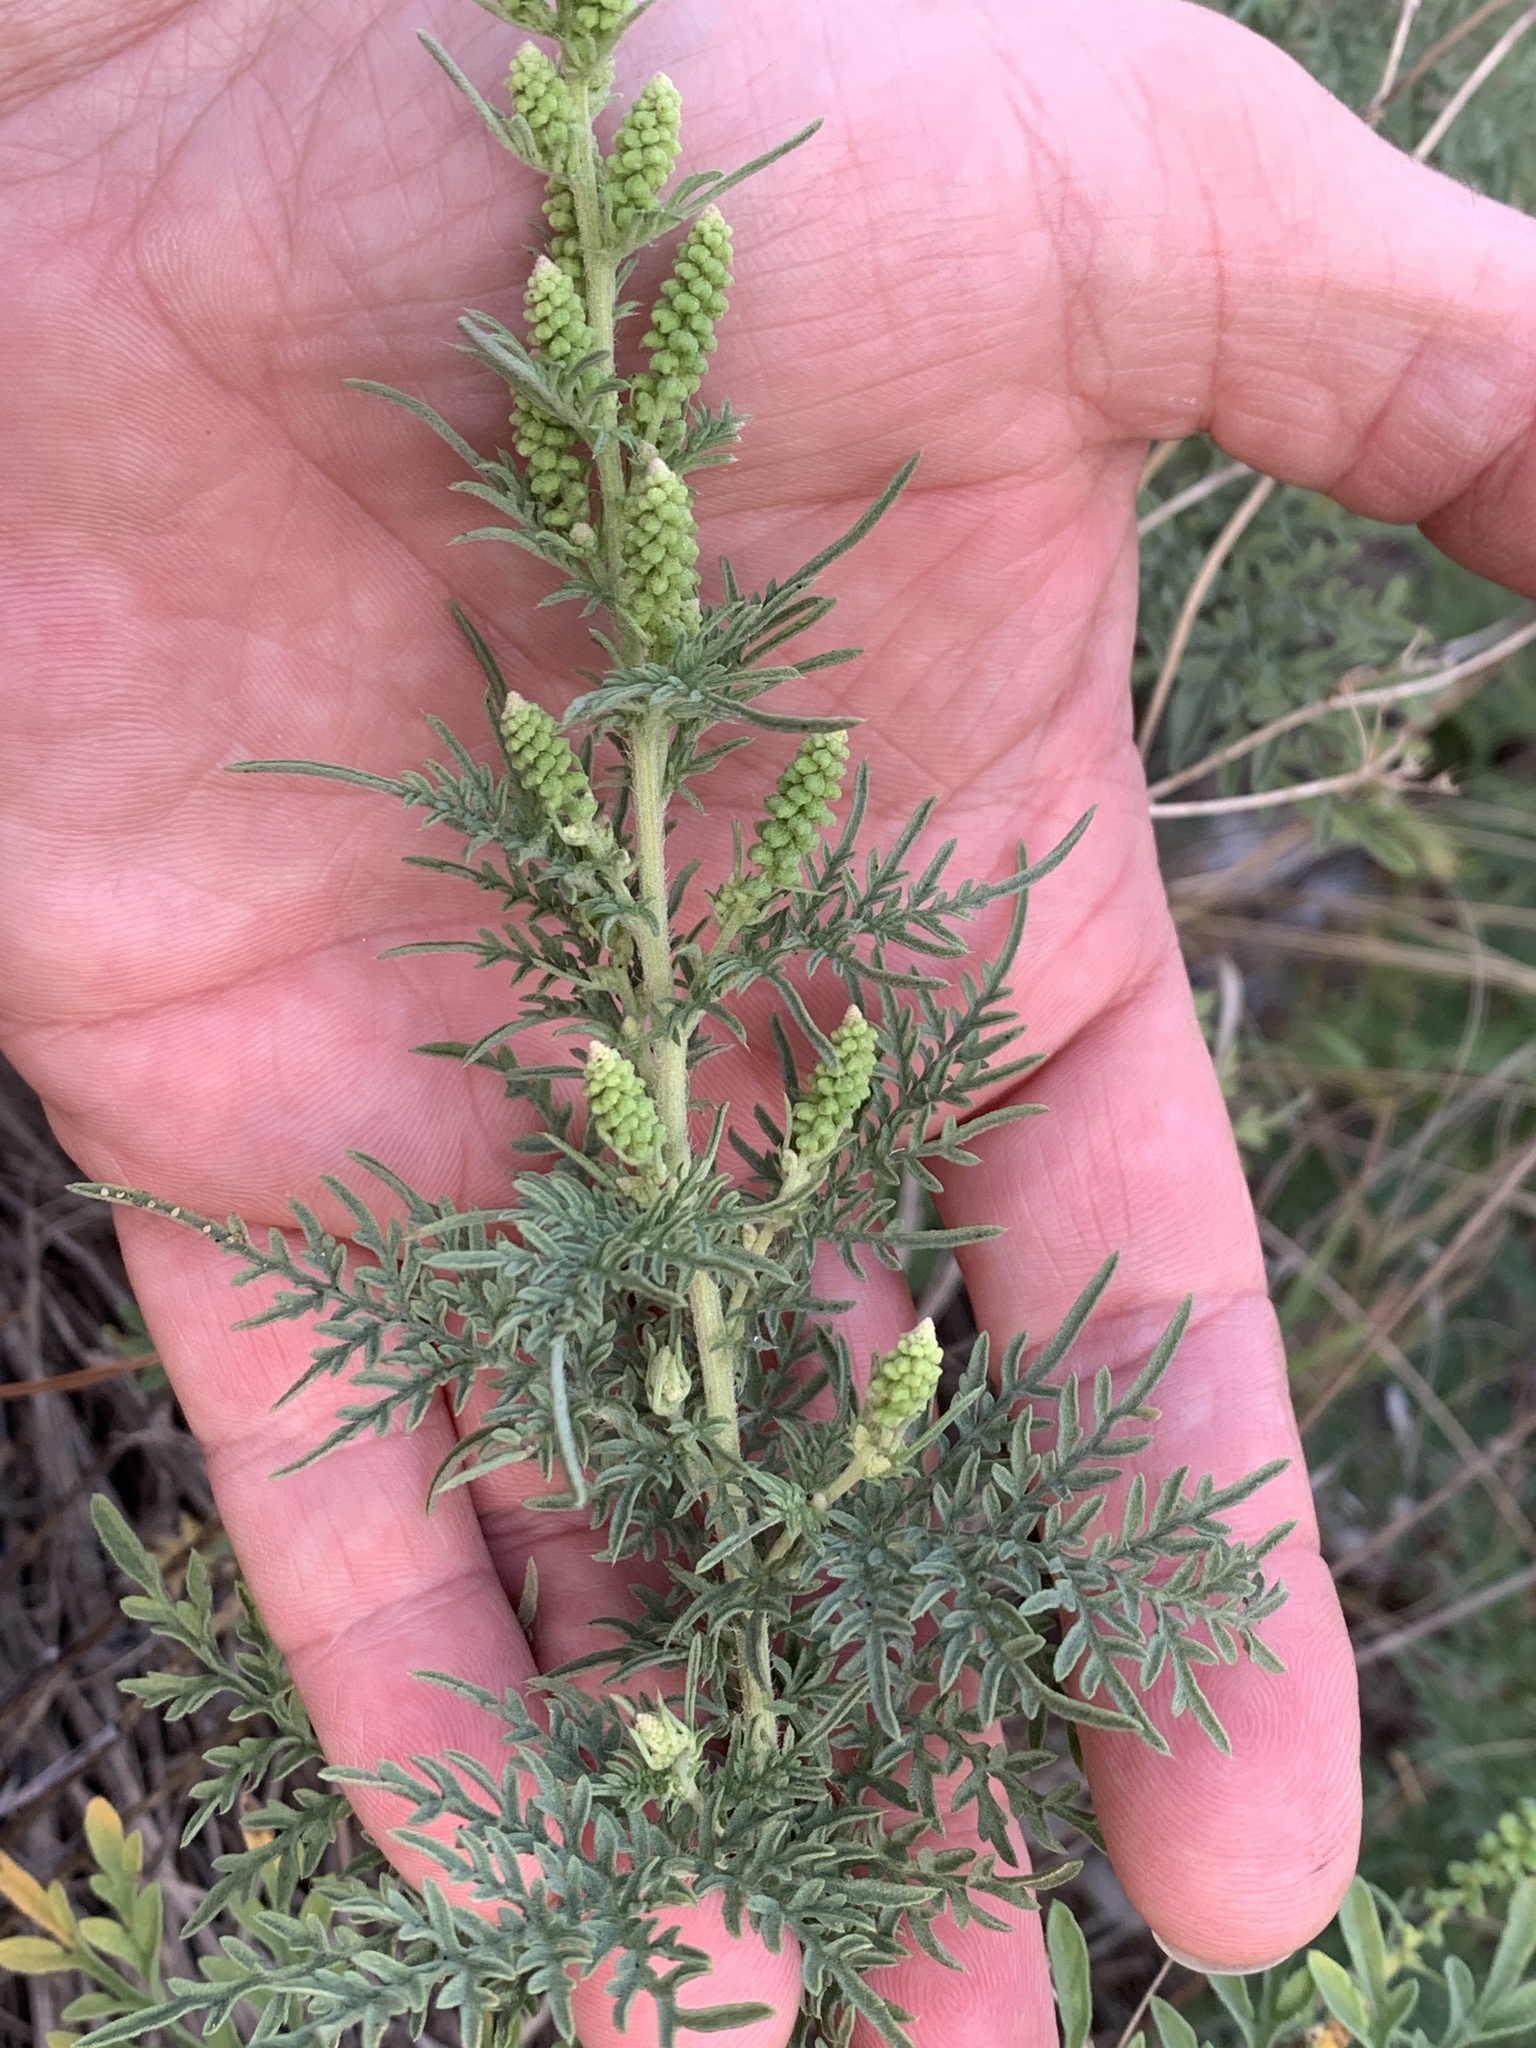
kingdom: Plantae
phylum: Tracheophyta
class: Magnoliopsida
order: Asterales
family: Asteraceae
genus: Ambrosia
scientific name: Ambrosia psilostachya
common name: Perennial ragweed
